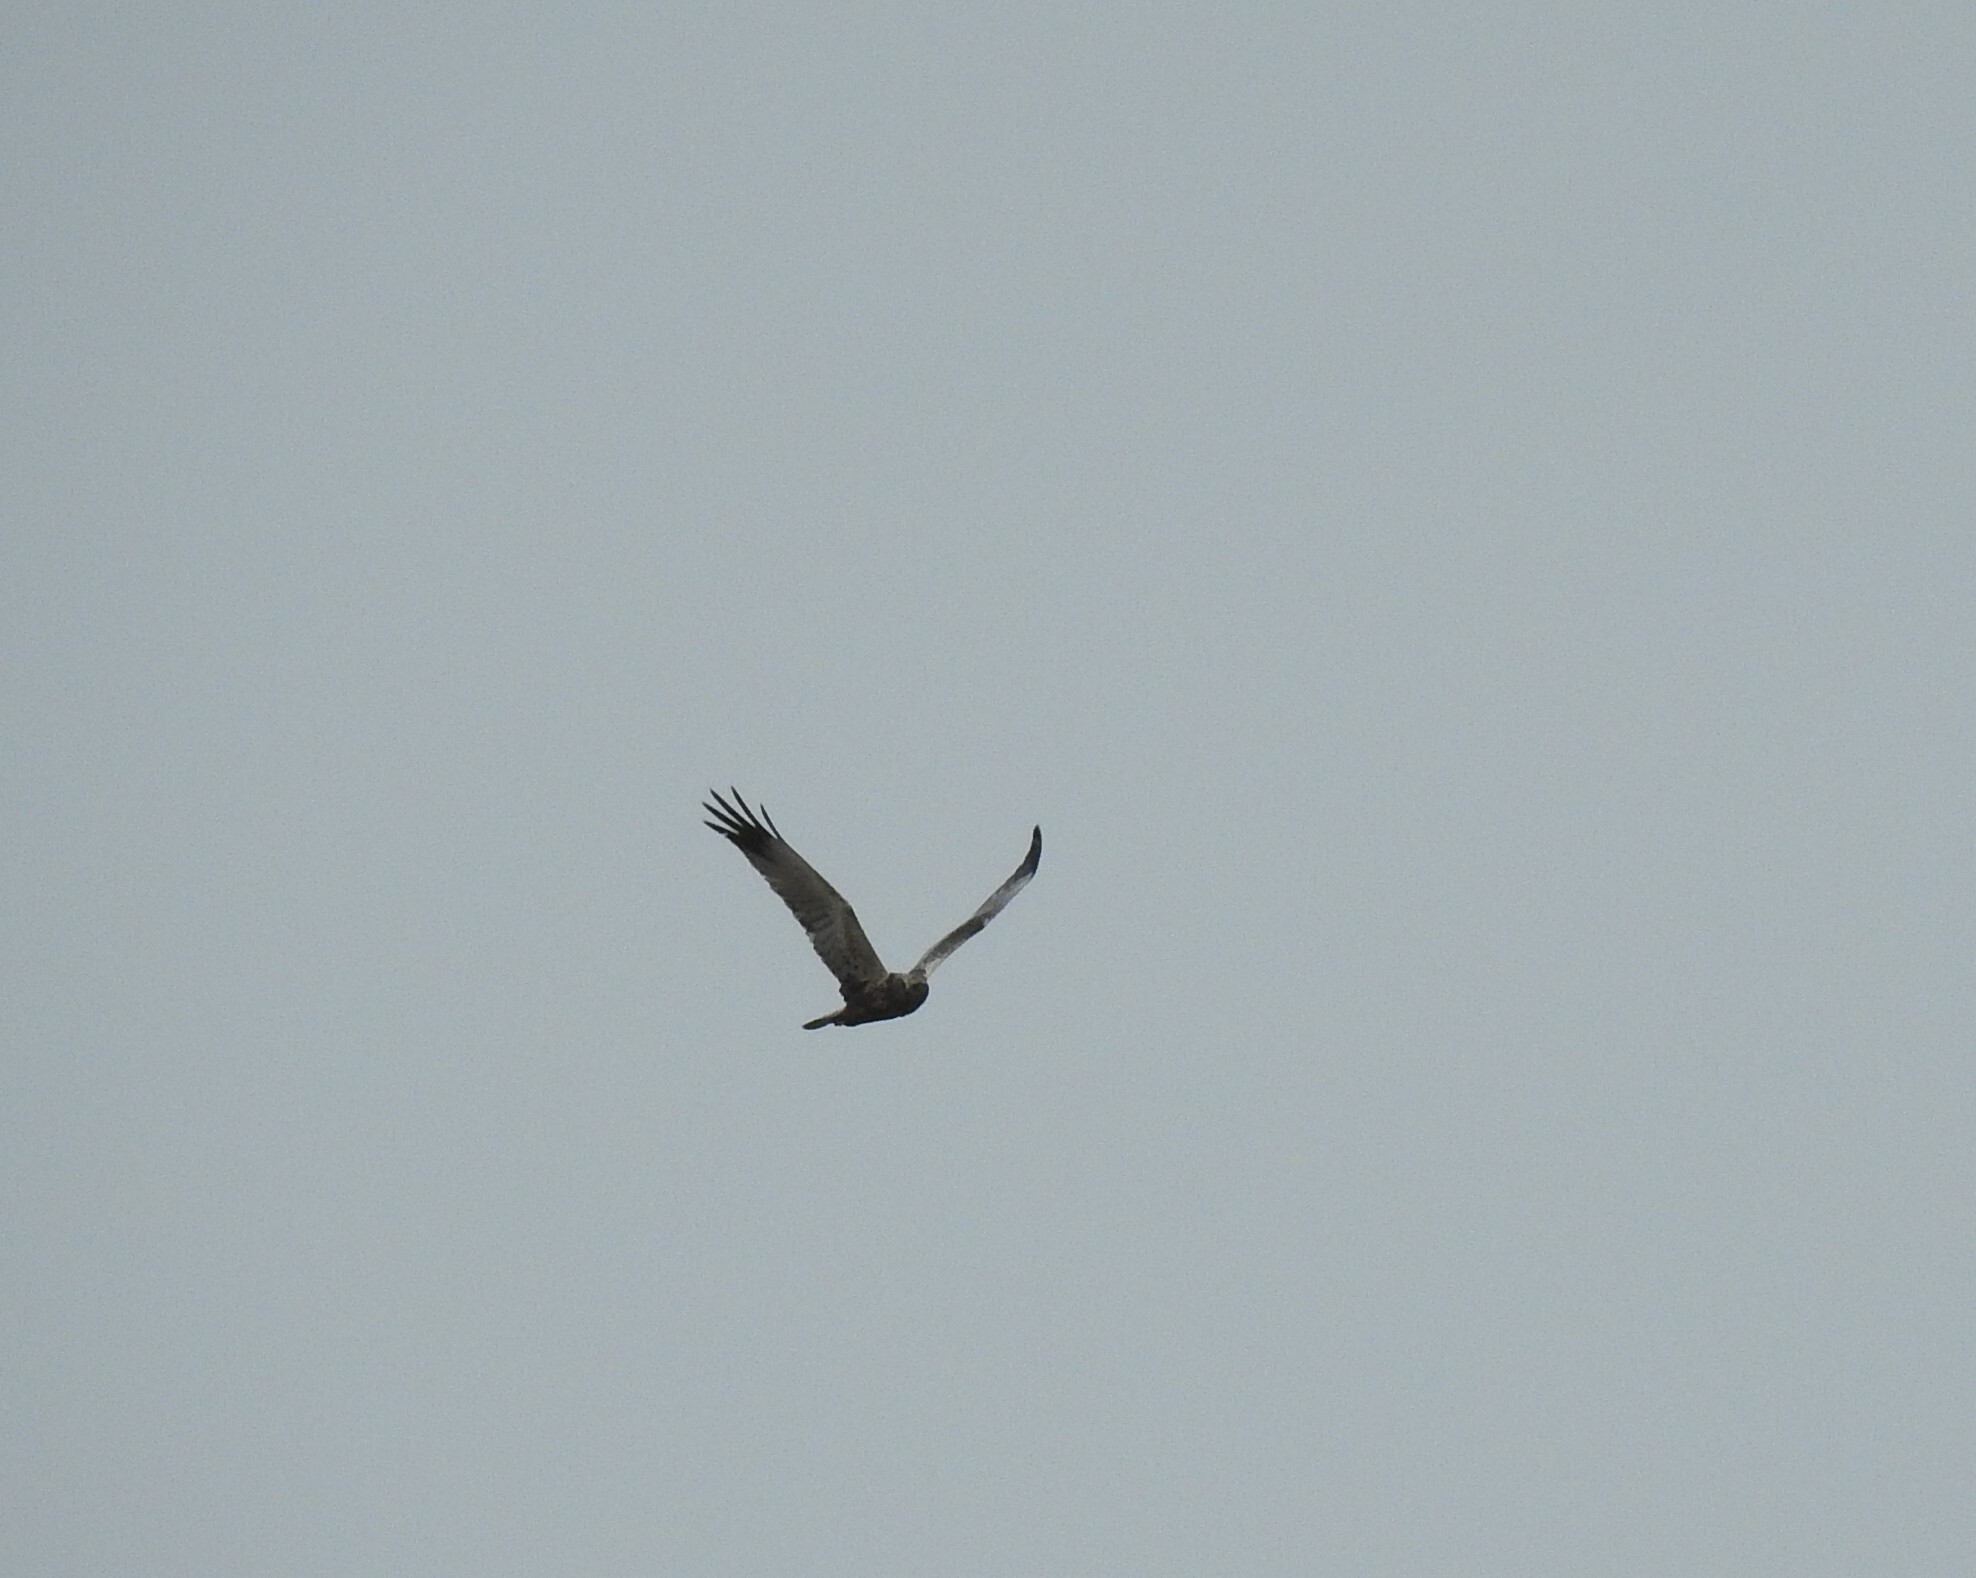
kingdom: Animalia
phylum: Chordata
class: Aves
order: Accipitriformes
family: Accipitridae
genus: Circus
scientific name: Circus aeruginosus
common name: Western marsh harrier
